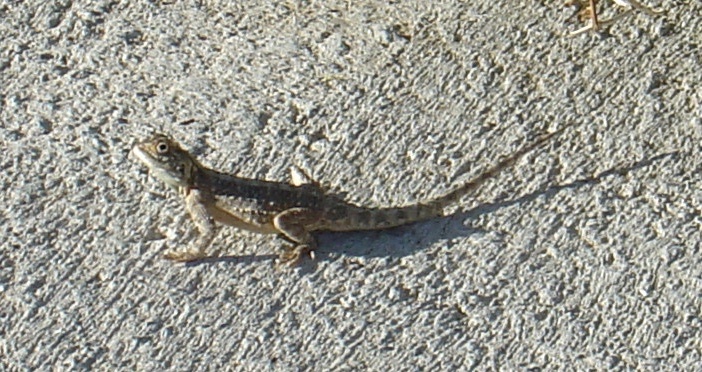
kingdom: Animalia
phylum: Chordata
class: Squamata
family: Agamidae
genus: Agama
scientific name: Agama aculeata
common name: Common ground agama
